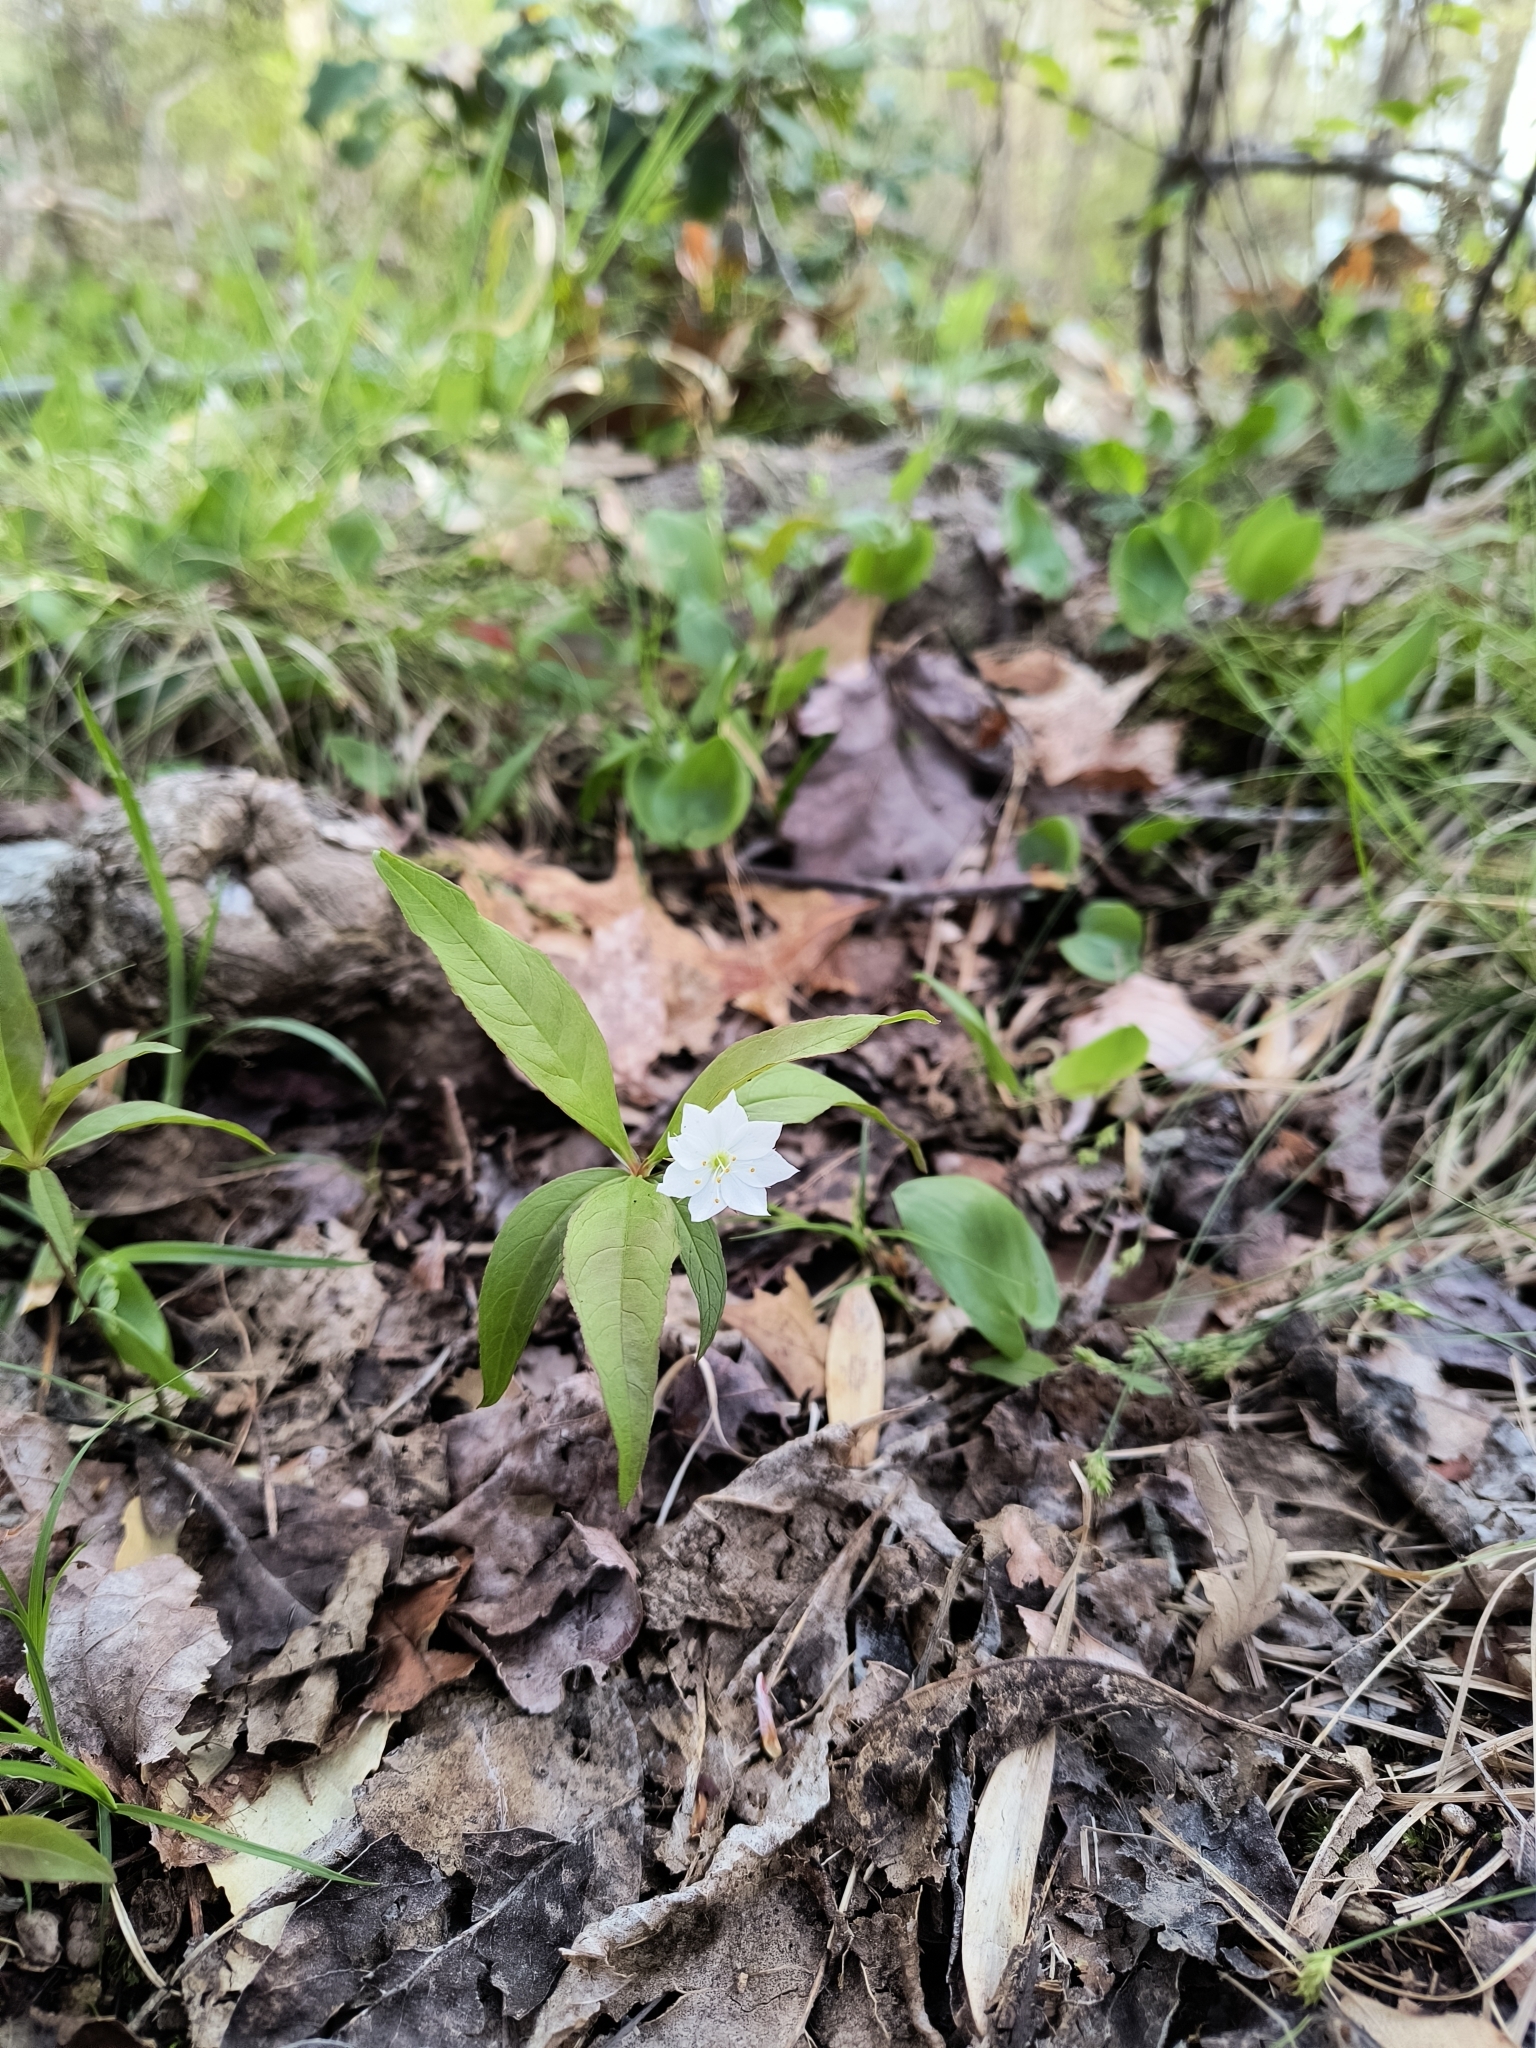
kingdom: Plantae
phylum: Tracheophyta
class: Magnoliopsida
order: Ericales
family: Primulaceae
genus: Lysimachia
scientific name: Lysimachia borealis
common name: American starflower
